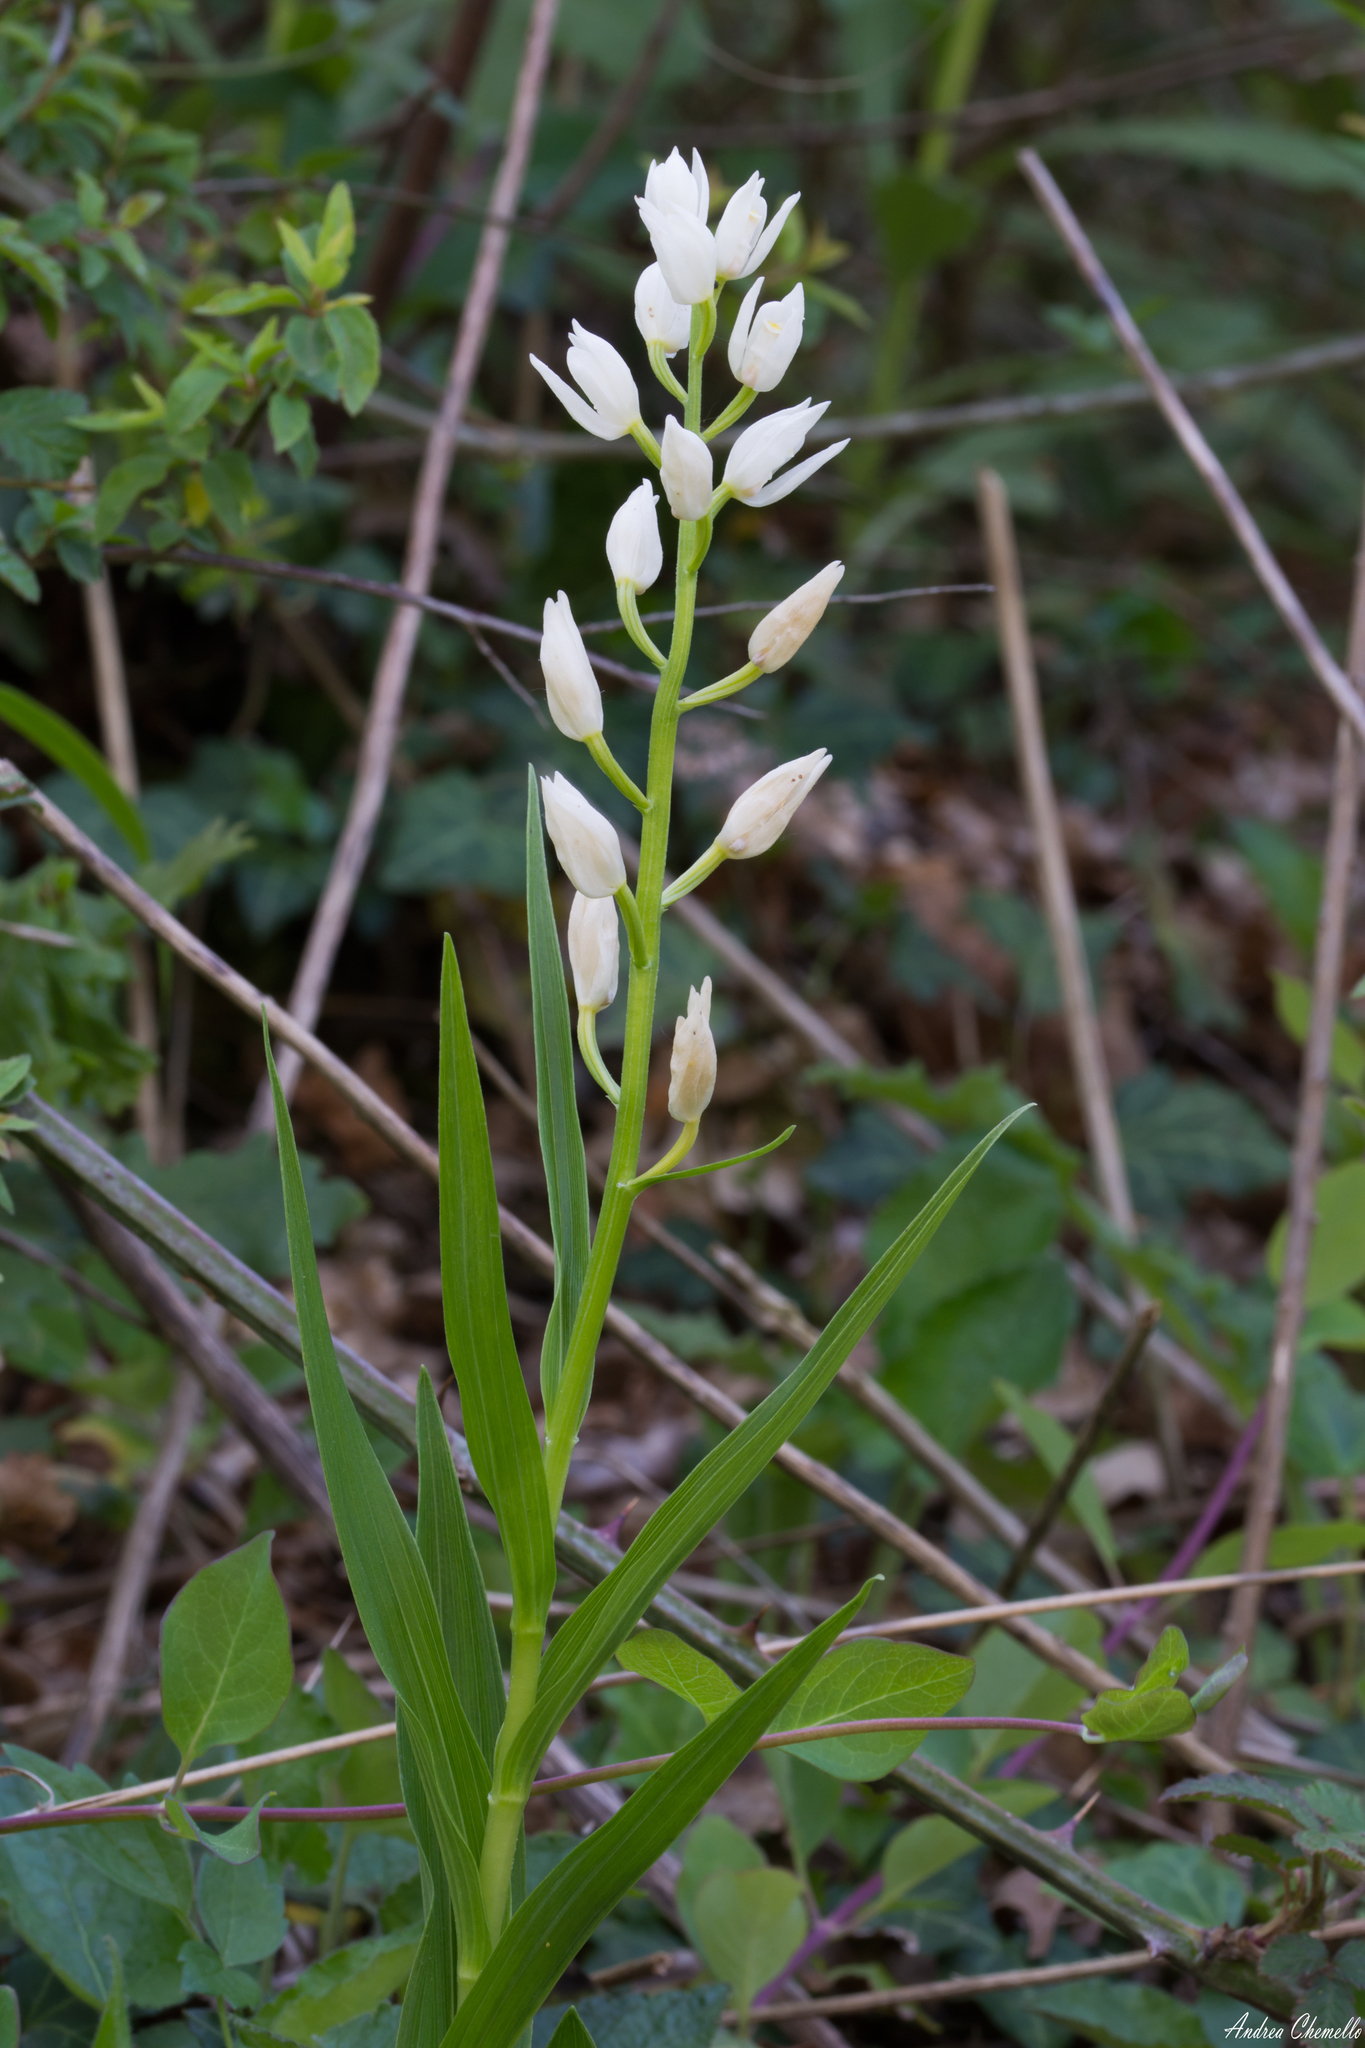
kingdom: Plantae
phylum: Tracheophyta
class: Liliopsida
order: Asparagales
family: Orchidaceae
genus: Cephalanthera
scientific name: Cephalanthera longifolia
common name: Narrow-leaved helleborine
